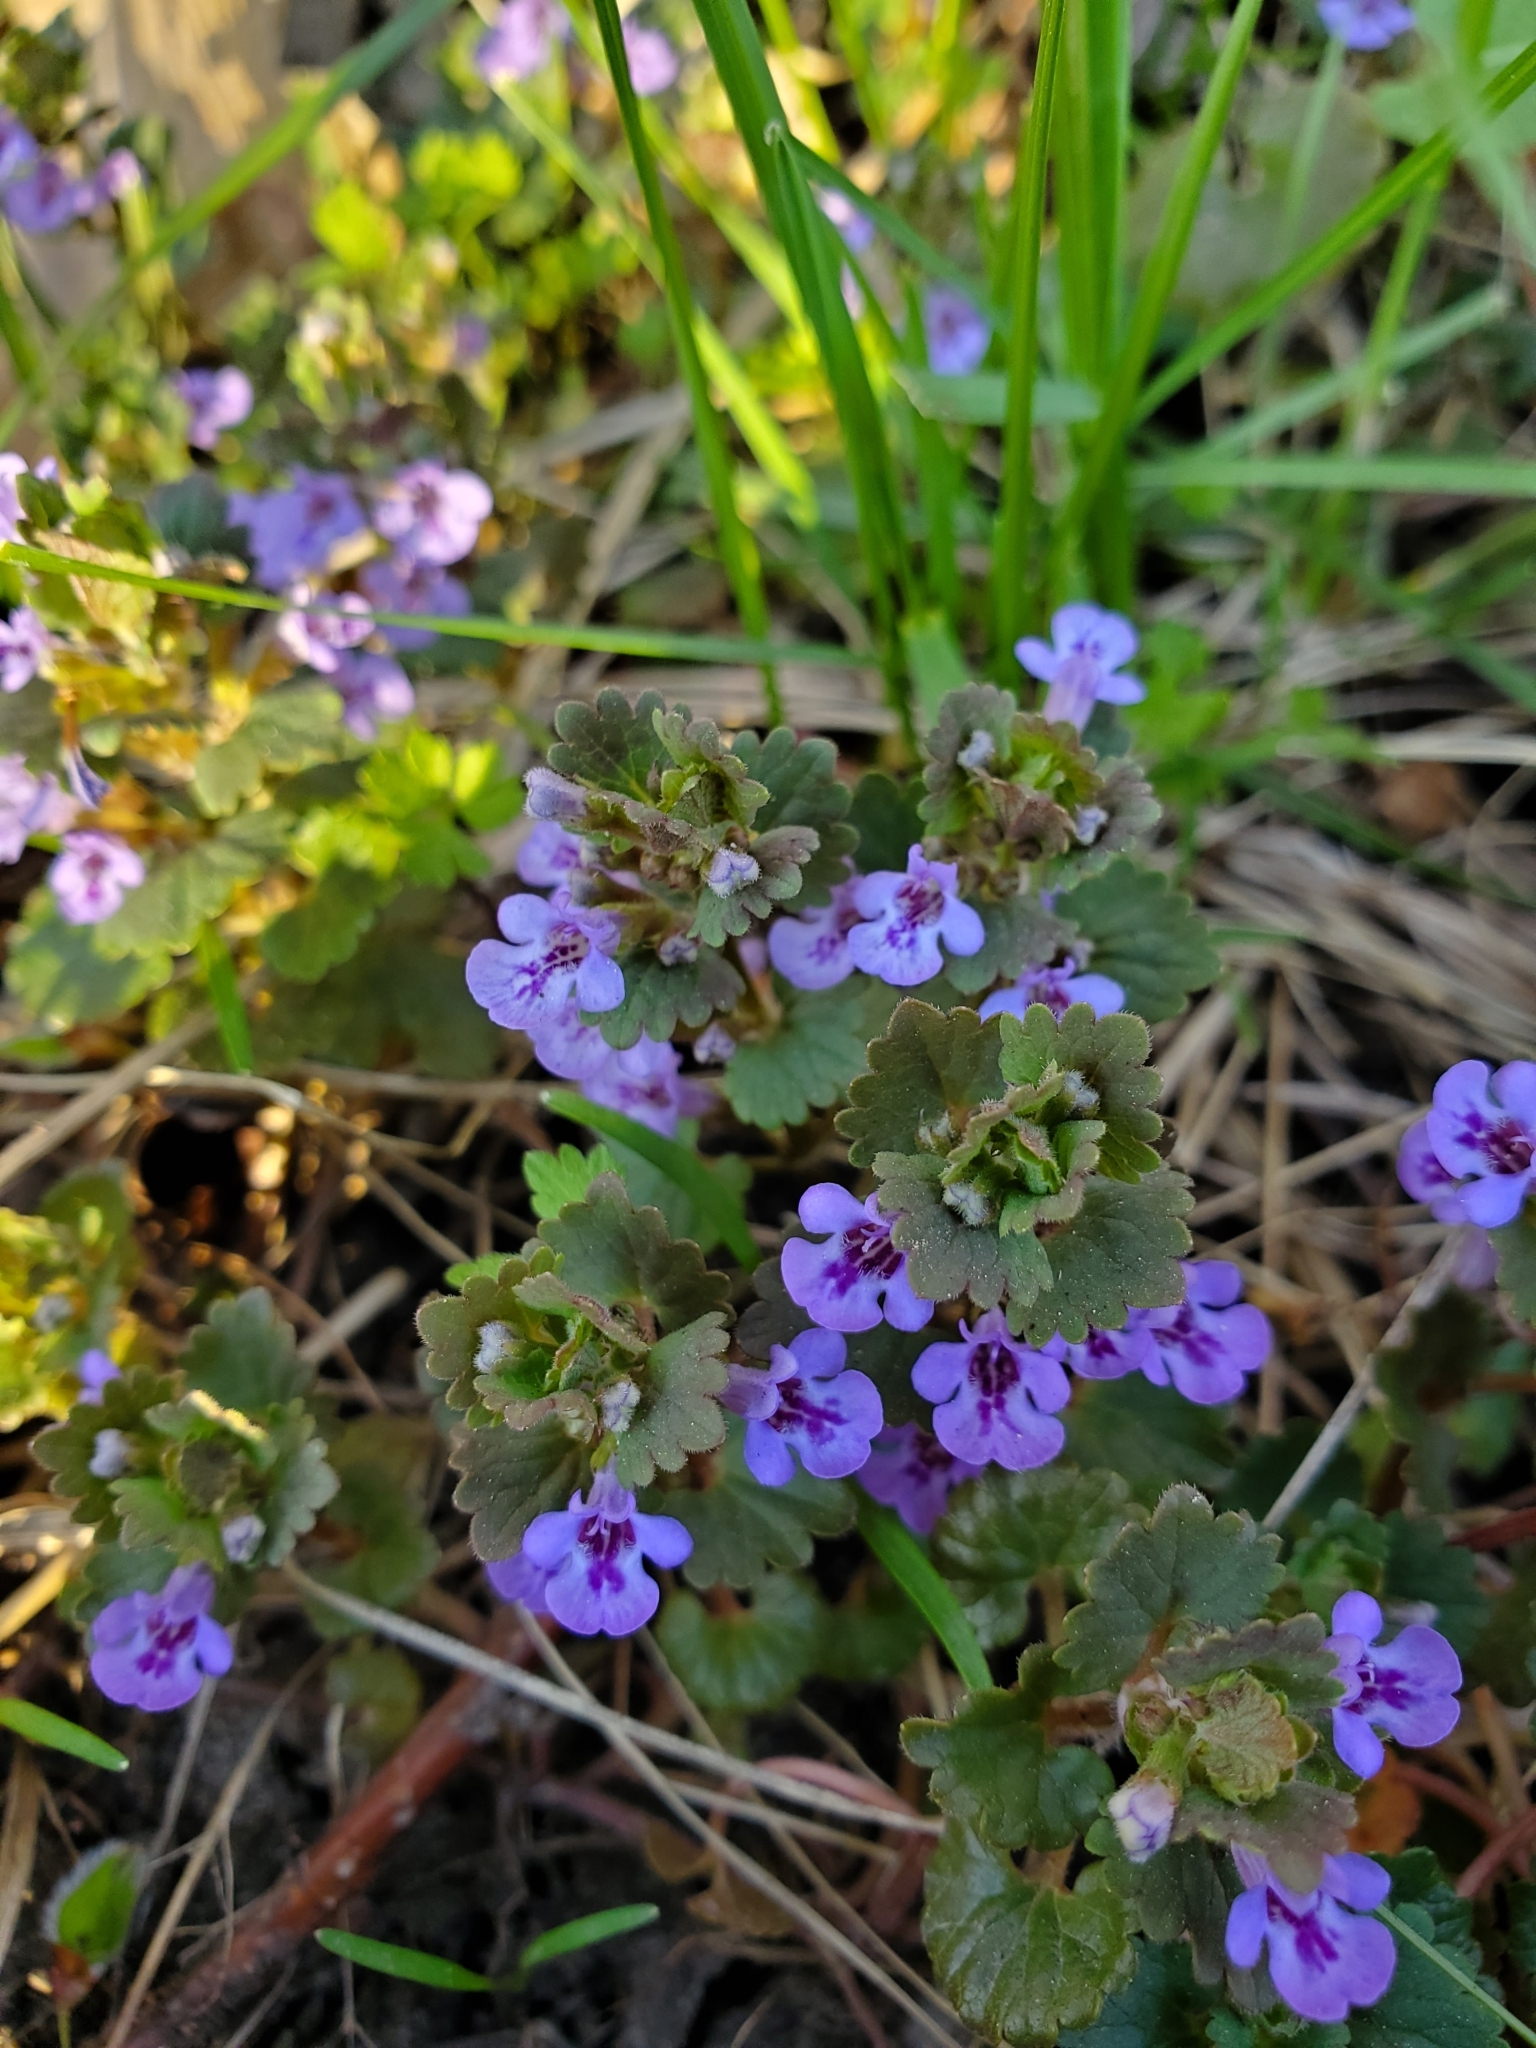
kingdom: Plantae
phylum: Tracheophyta
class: Magnoliopsida
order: Lamiales
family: Lamiaceae
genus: Glechoma
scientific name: Glechoma hederacea
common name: Ground ivy
